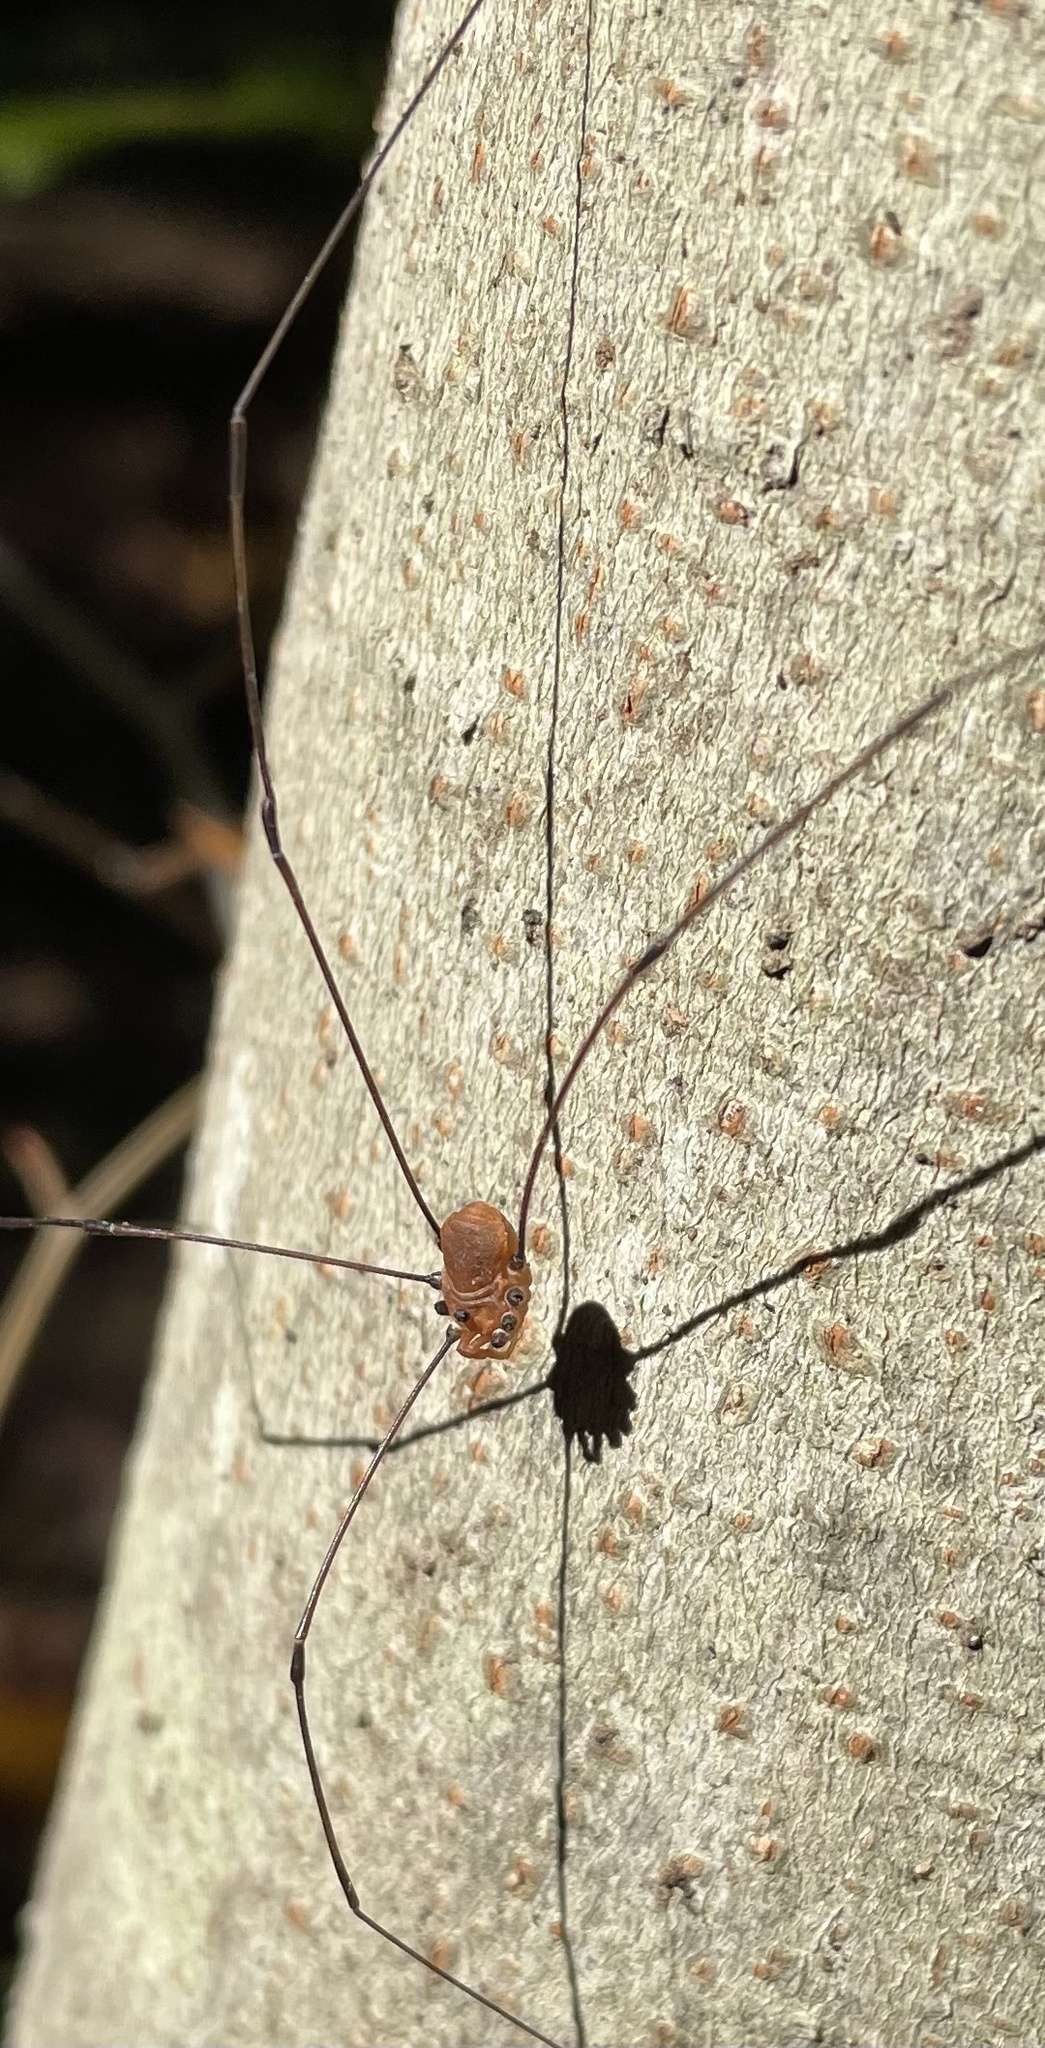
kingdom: Animalia
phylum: Arthropoda
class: Arachnida
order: Opiliones
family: Sclerosomatidae
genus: Leiobunum
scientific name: Leiobunum uxorium
